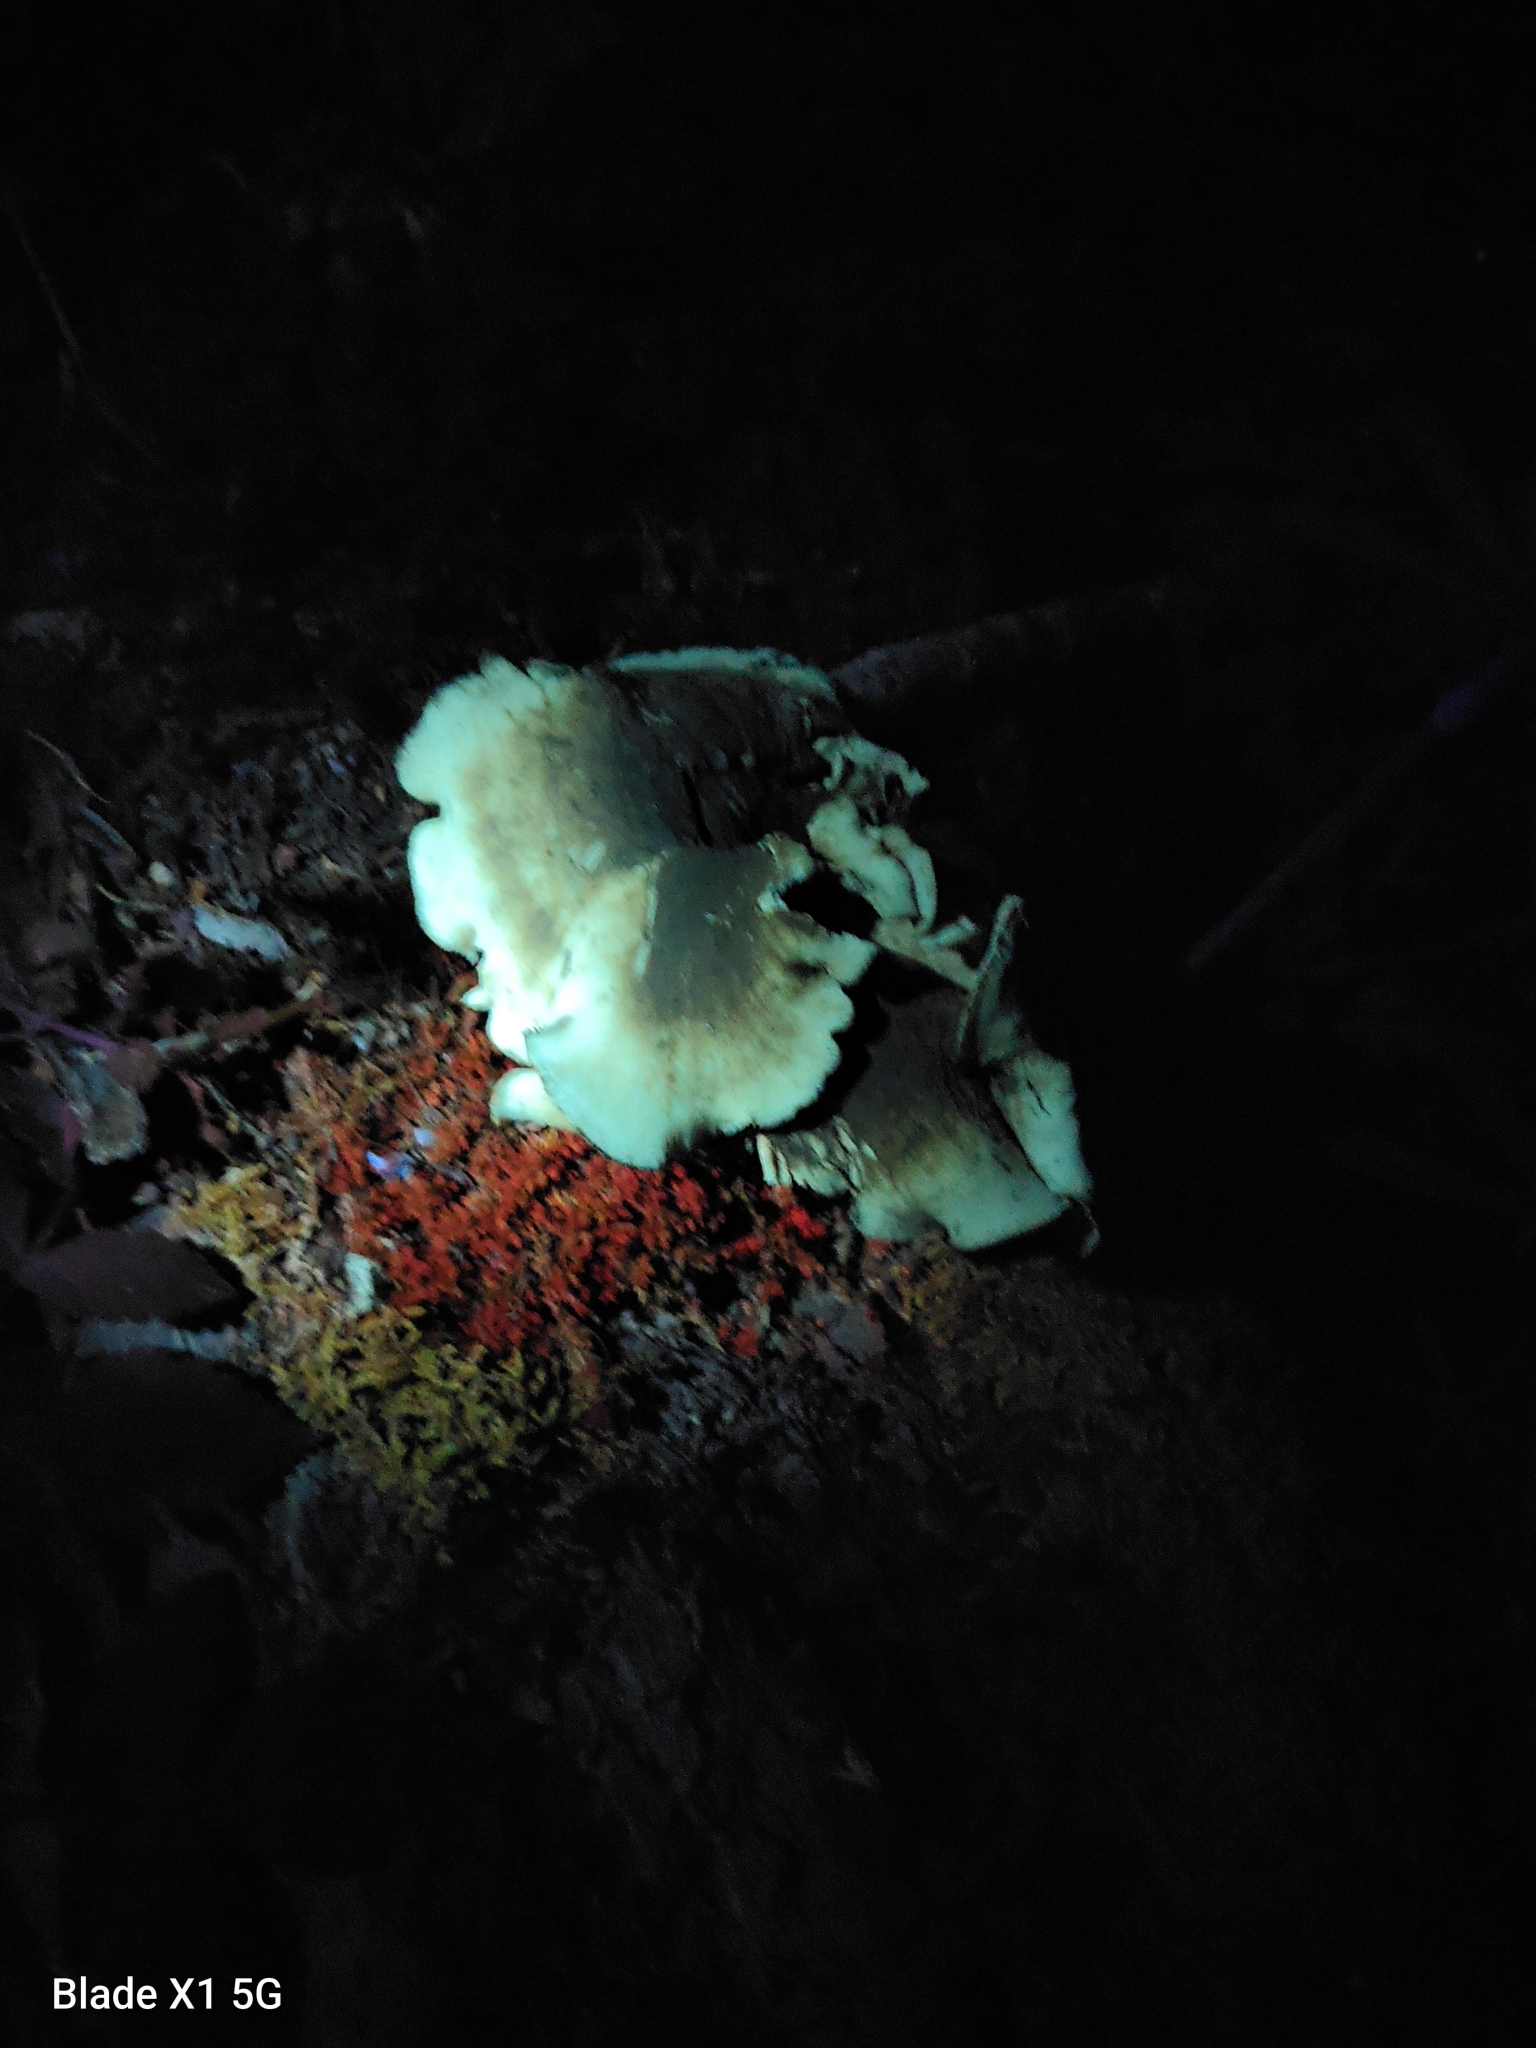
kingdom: Fungi
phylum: Basidiomycota
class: Agaricomycetes
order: Polyporales
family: Polyporaceae
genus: Picipes
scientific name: Picipes badius
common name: Bay polypore
